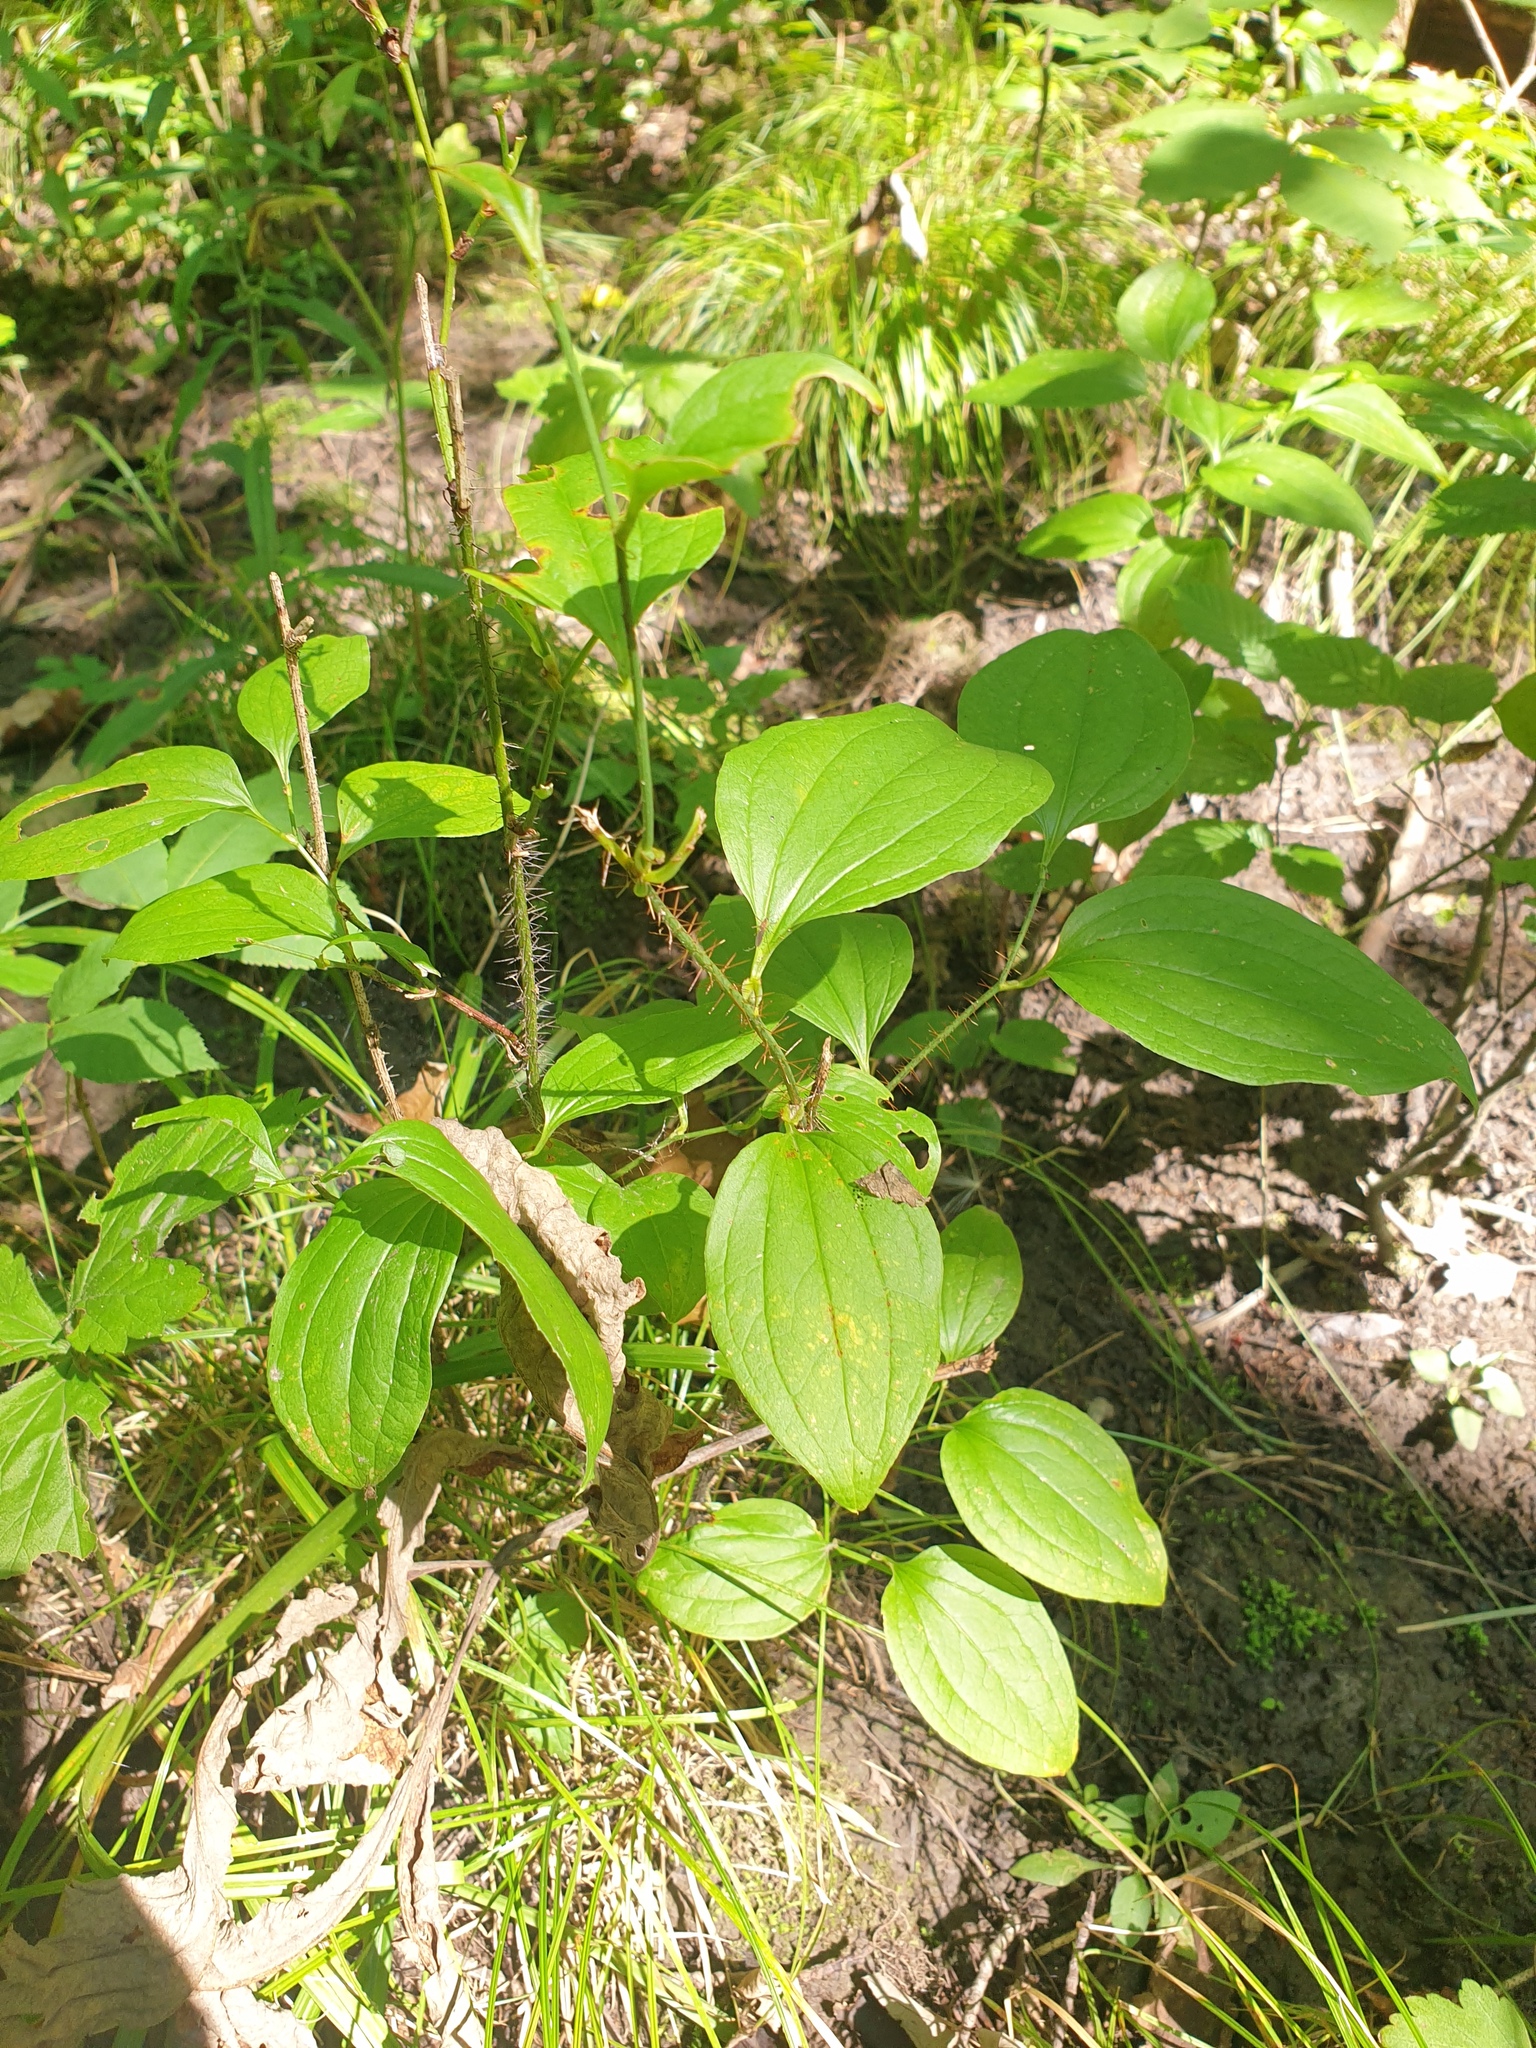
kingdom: Plantae
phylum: Tracheophyta
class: Liliopsida
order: Liliales
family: Smilacaceae
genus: Smilax
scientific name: Smilax tamnoides
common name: Hellfetter
